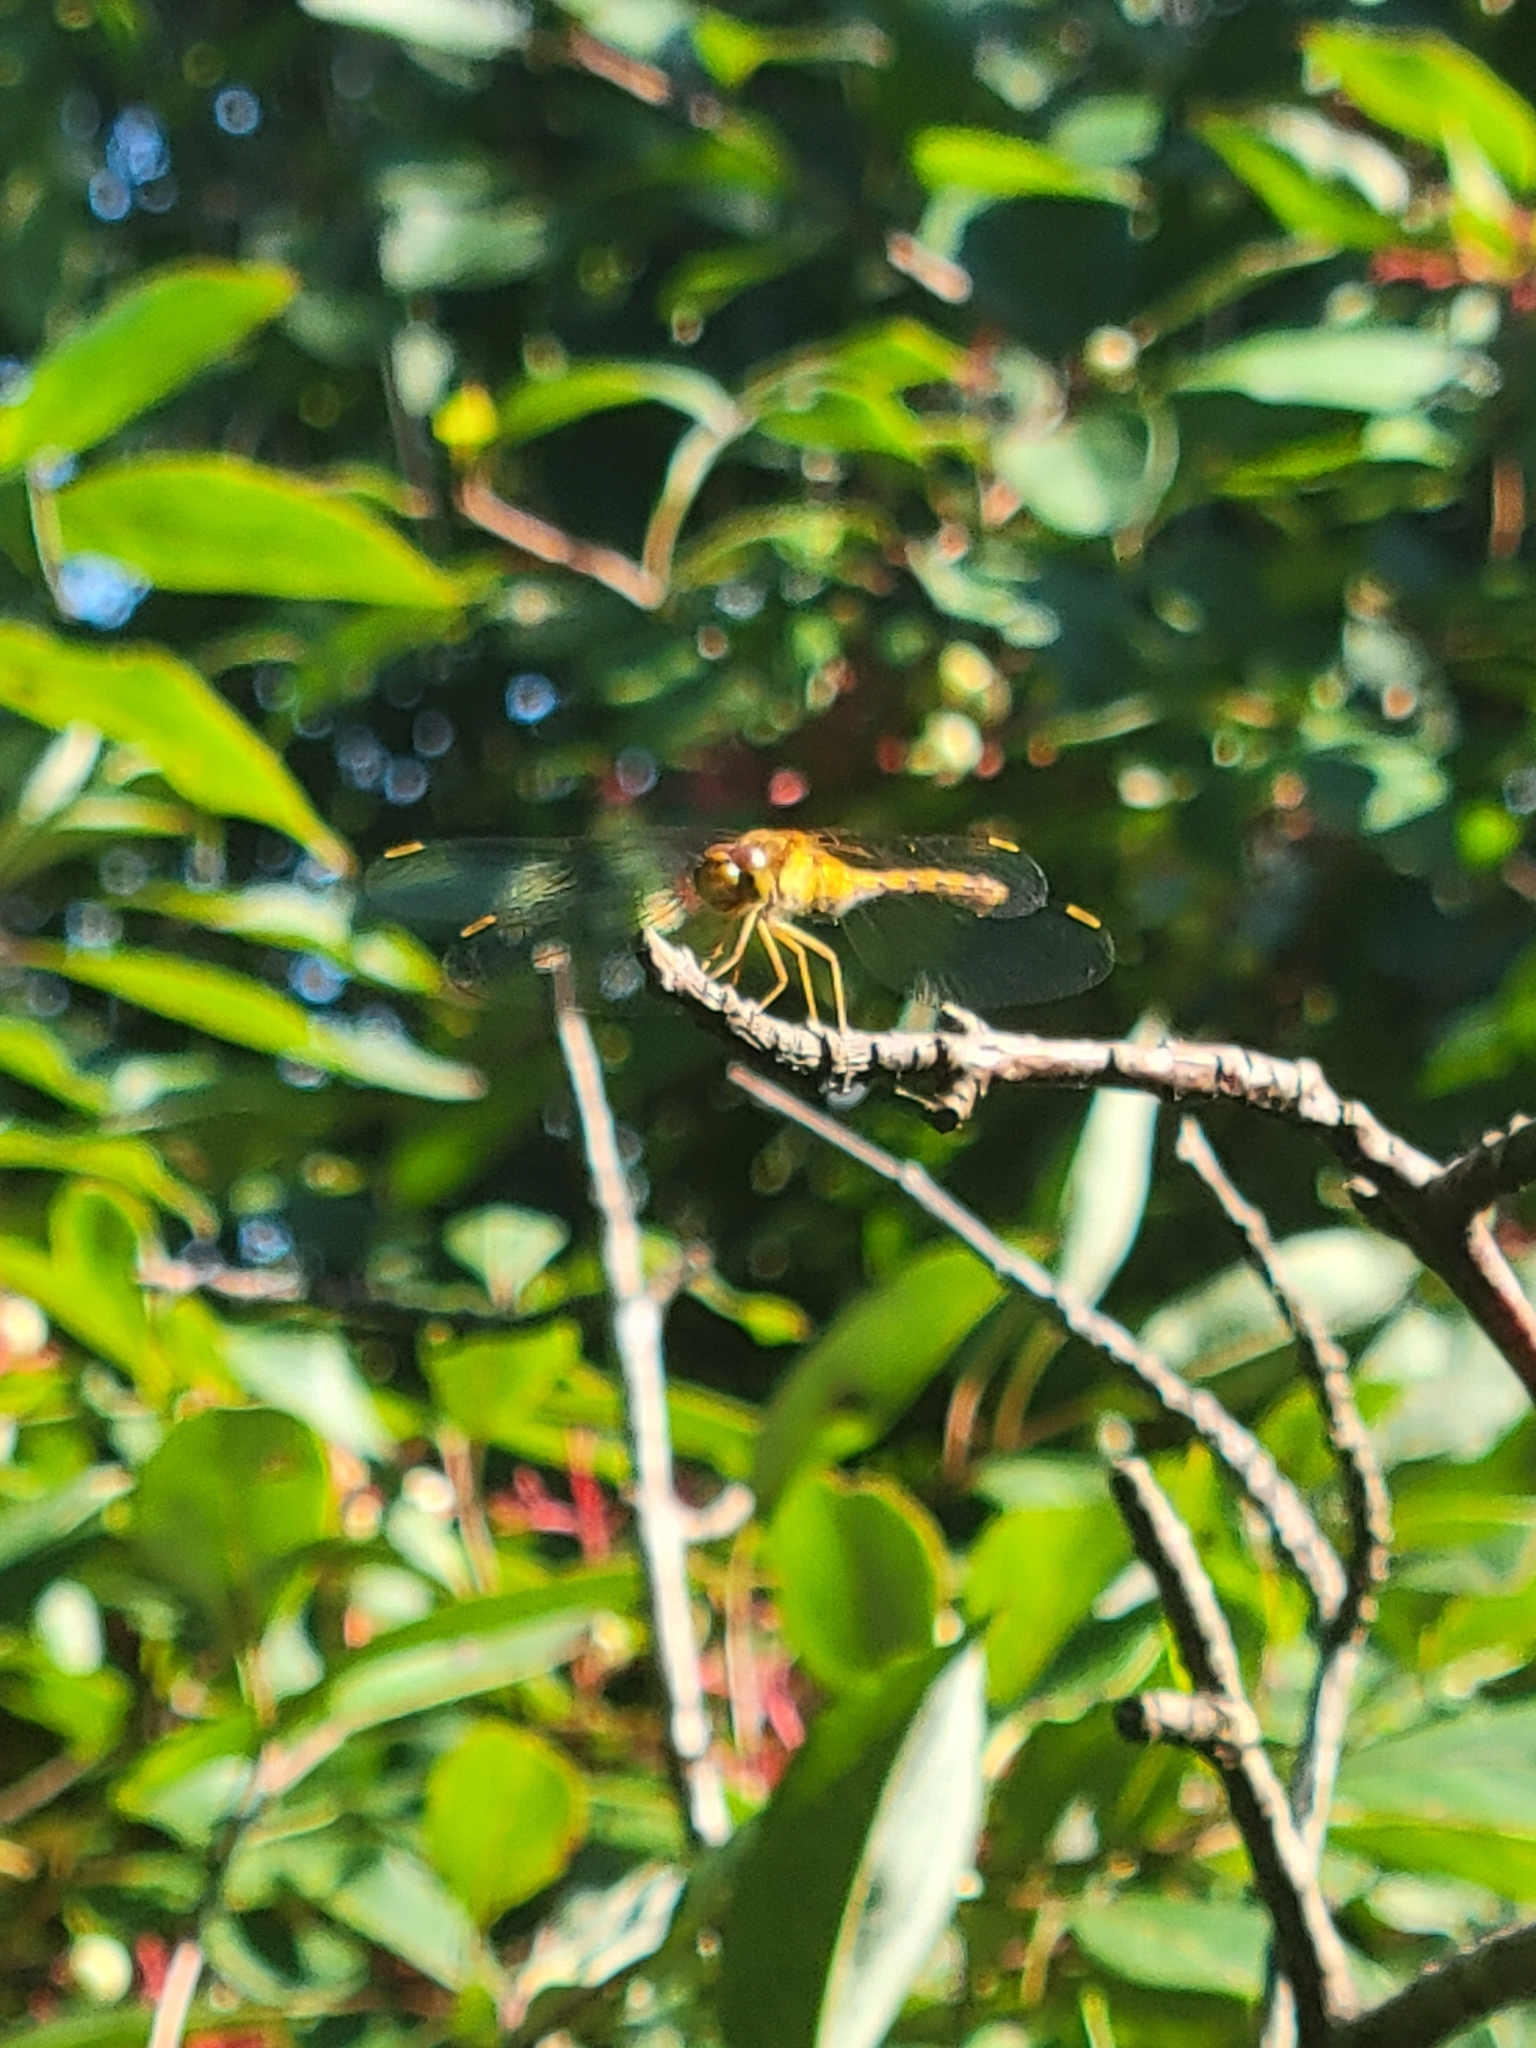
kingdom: Animalia
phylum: Arthropoda
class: Insecta
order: Odonata
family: Libellulidae
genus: Sympetrum
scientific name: Sympetrum vicinum
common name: Autumn meadowhawk
